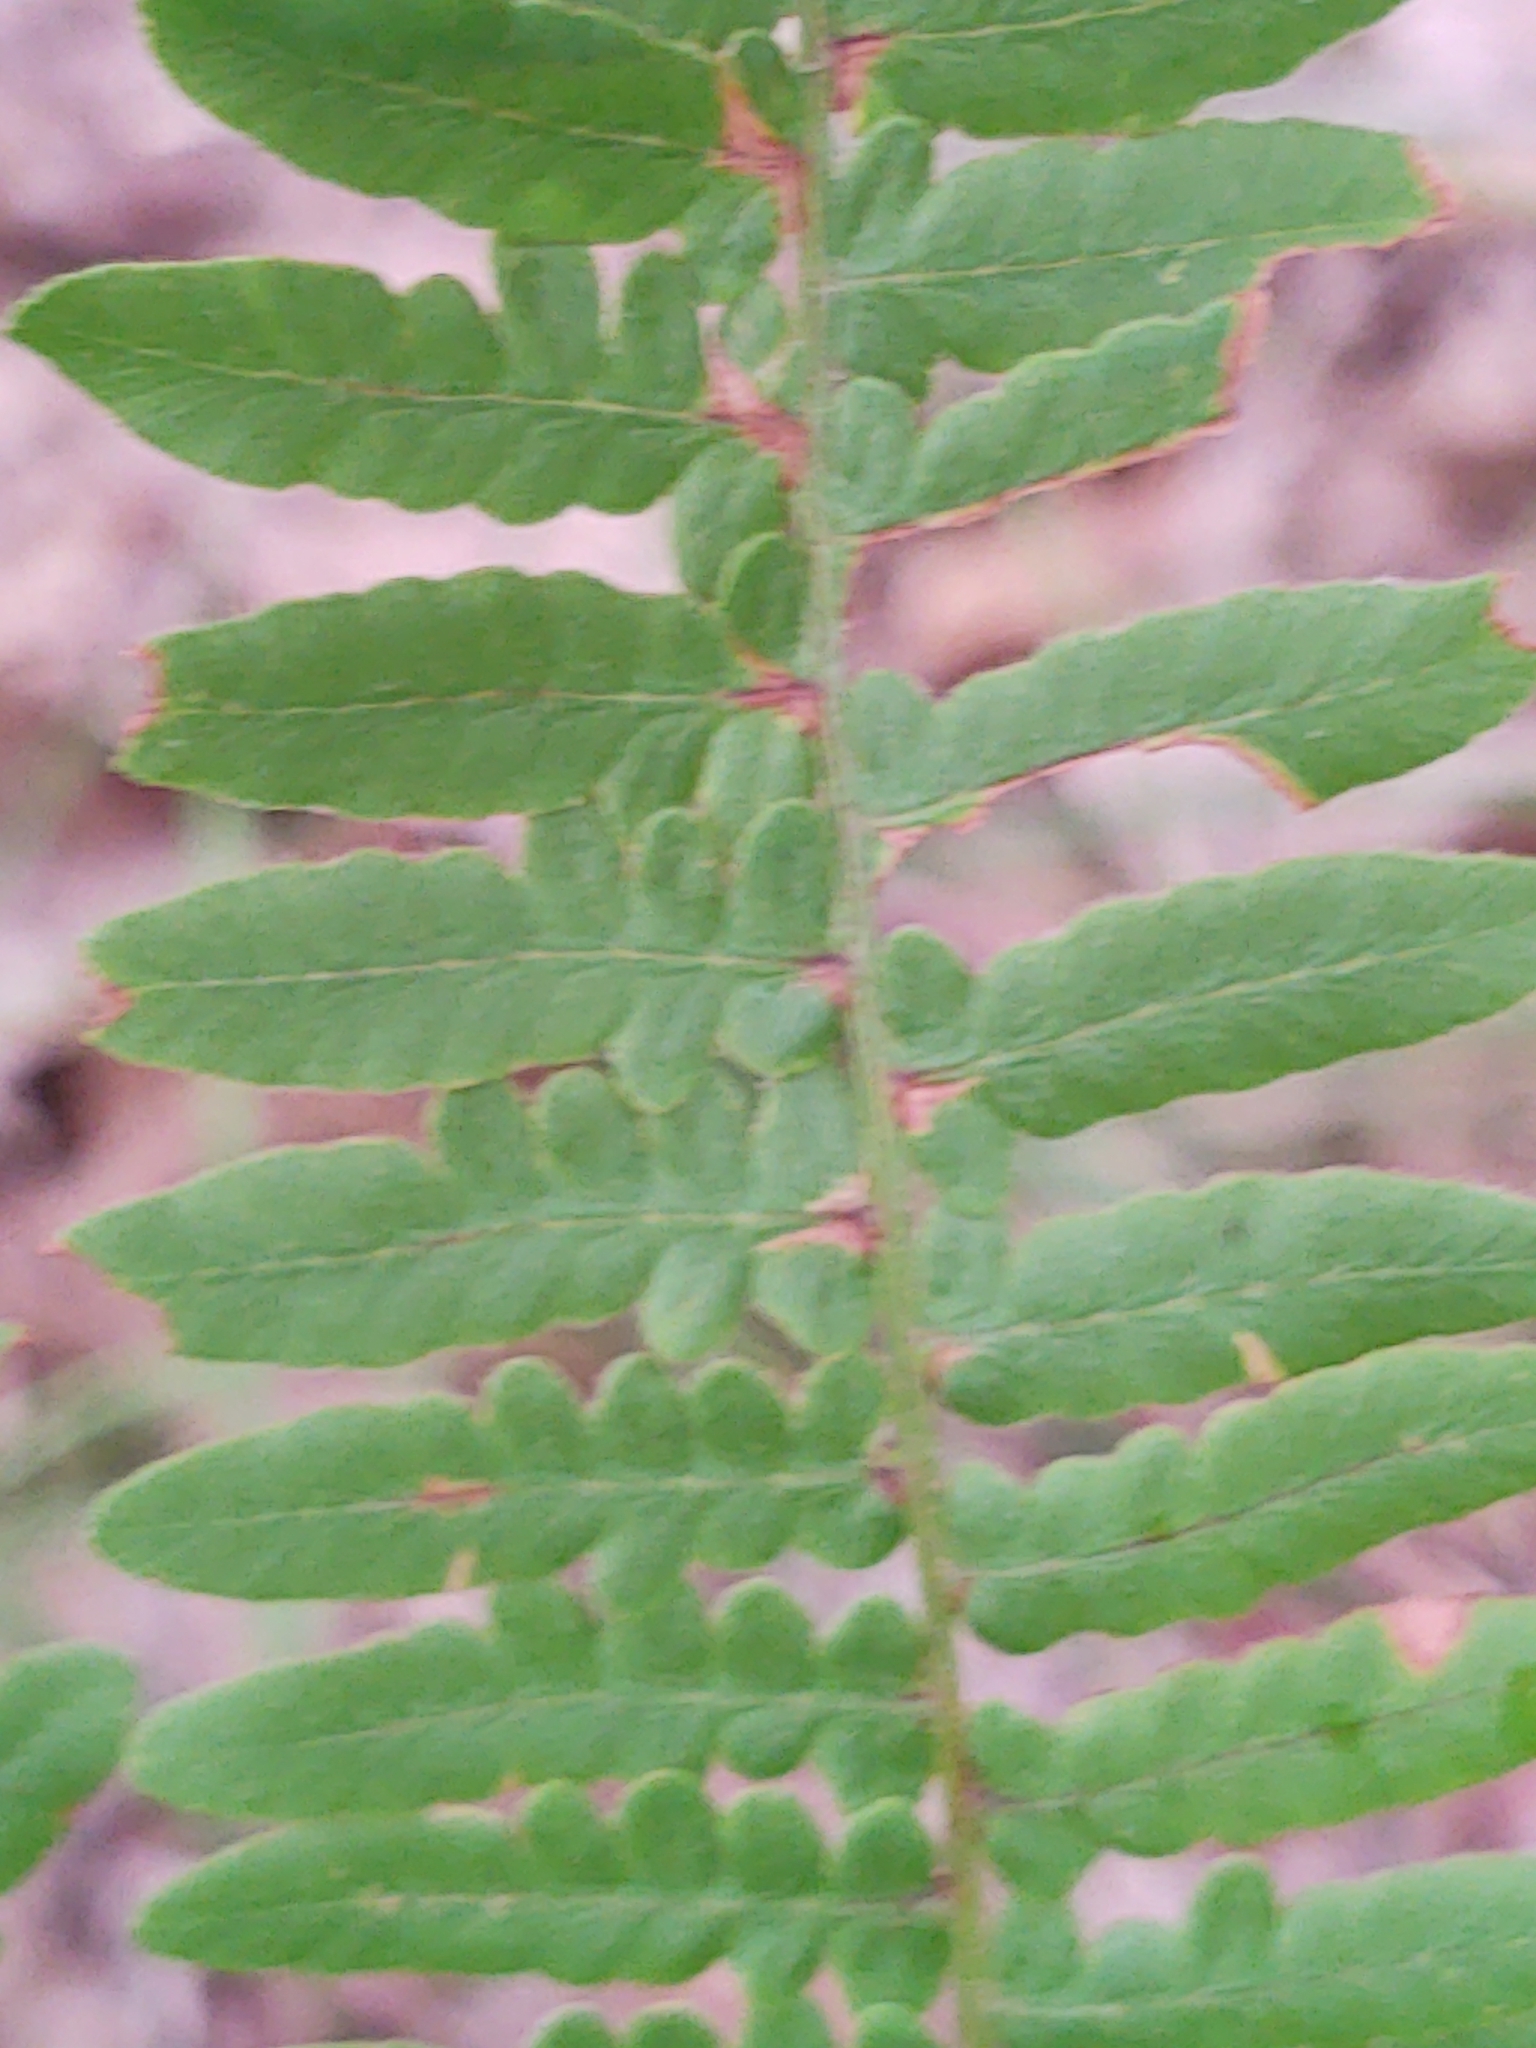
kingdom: Plantae
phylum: Tracheophyta
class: Polypodiopsida
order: Polypodiales
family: Dennstaedtiaceae
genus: Pteridium
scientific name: Pteridium aquilinum
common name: Bracken
